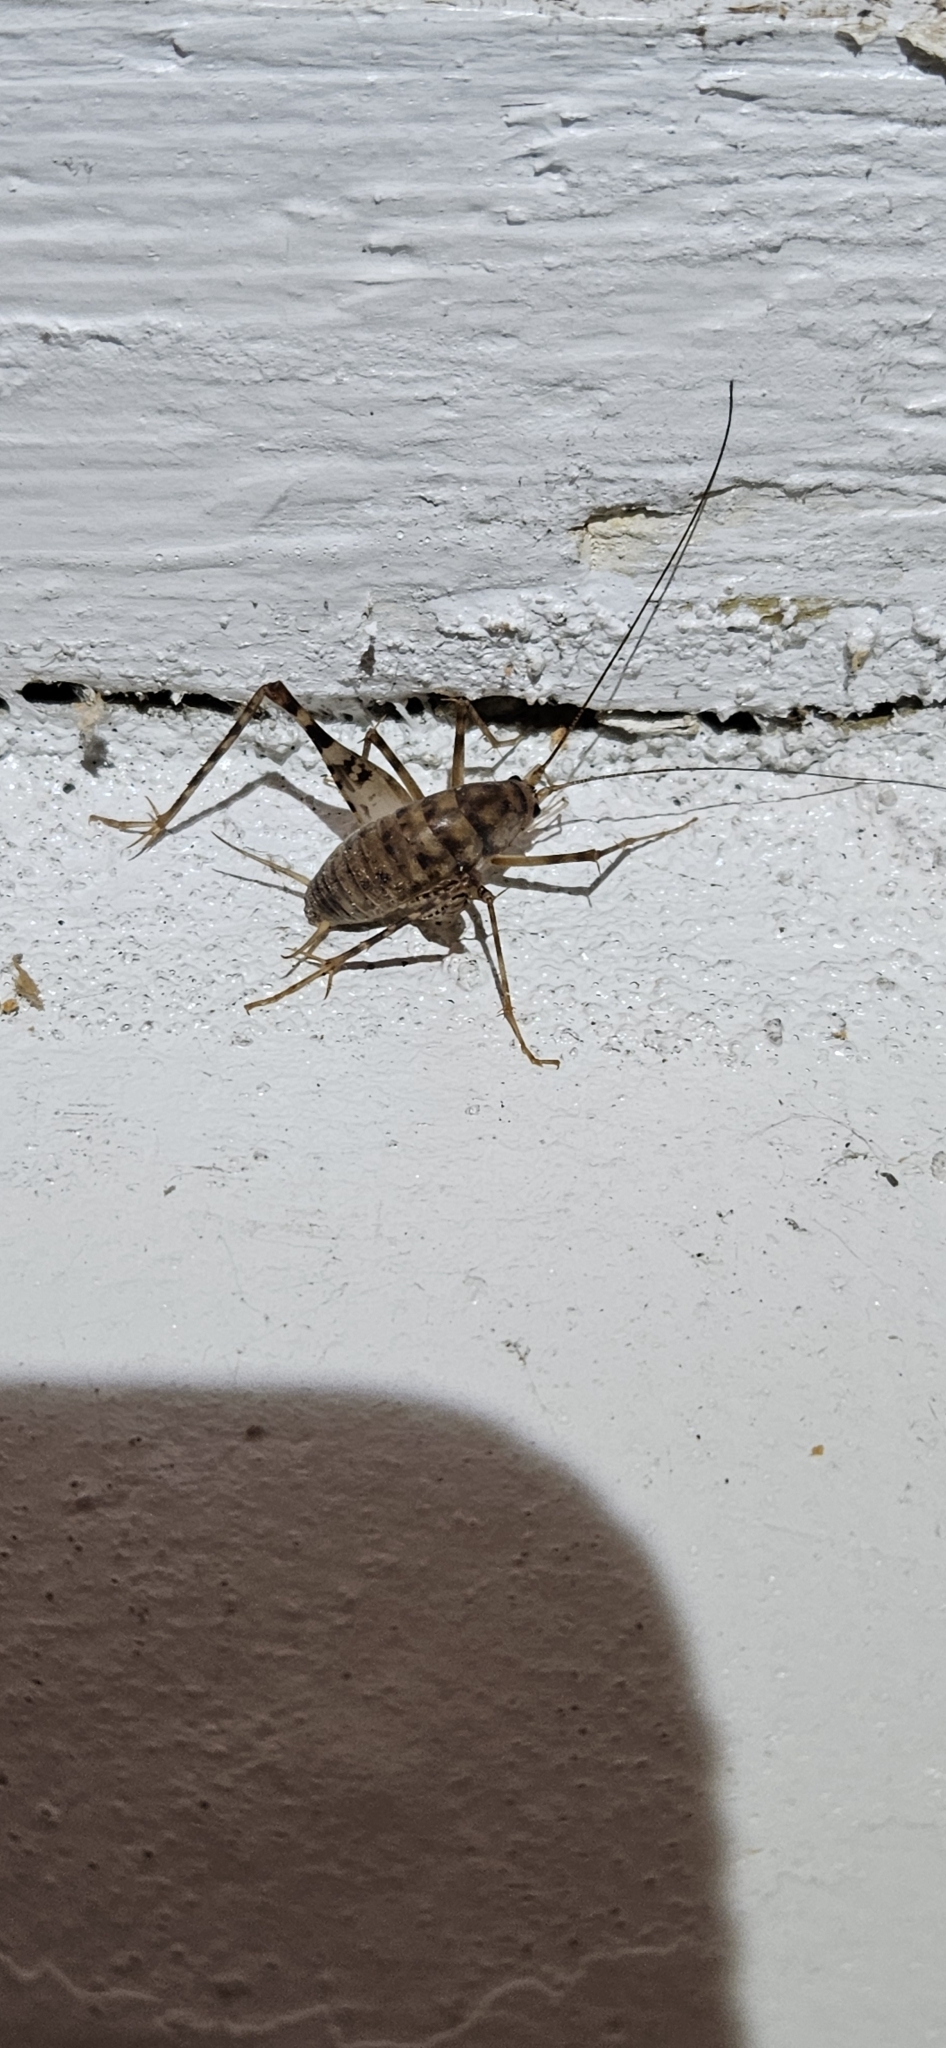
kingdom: Animalia
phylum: Arthropoda
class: Insecta
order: Orthoptera
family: Rhaphidophoridae
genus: Tachycines
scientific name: Tachycines asynamorus
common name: Greenhouse camel cricket
